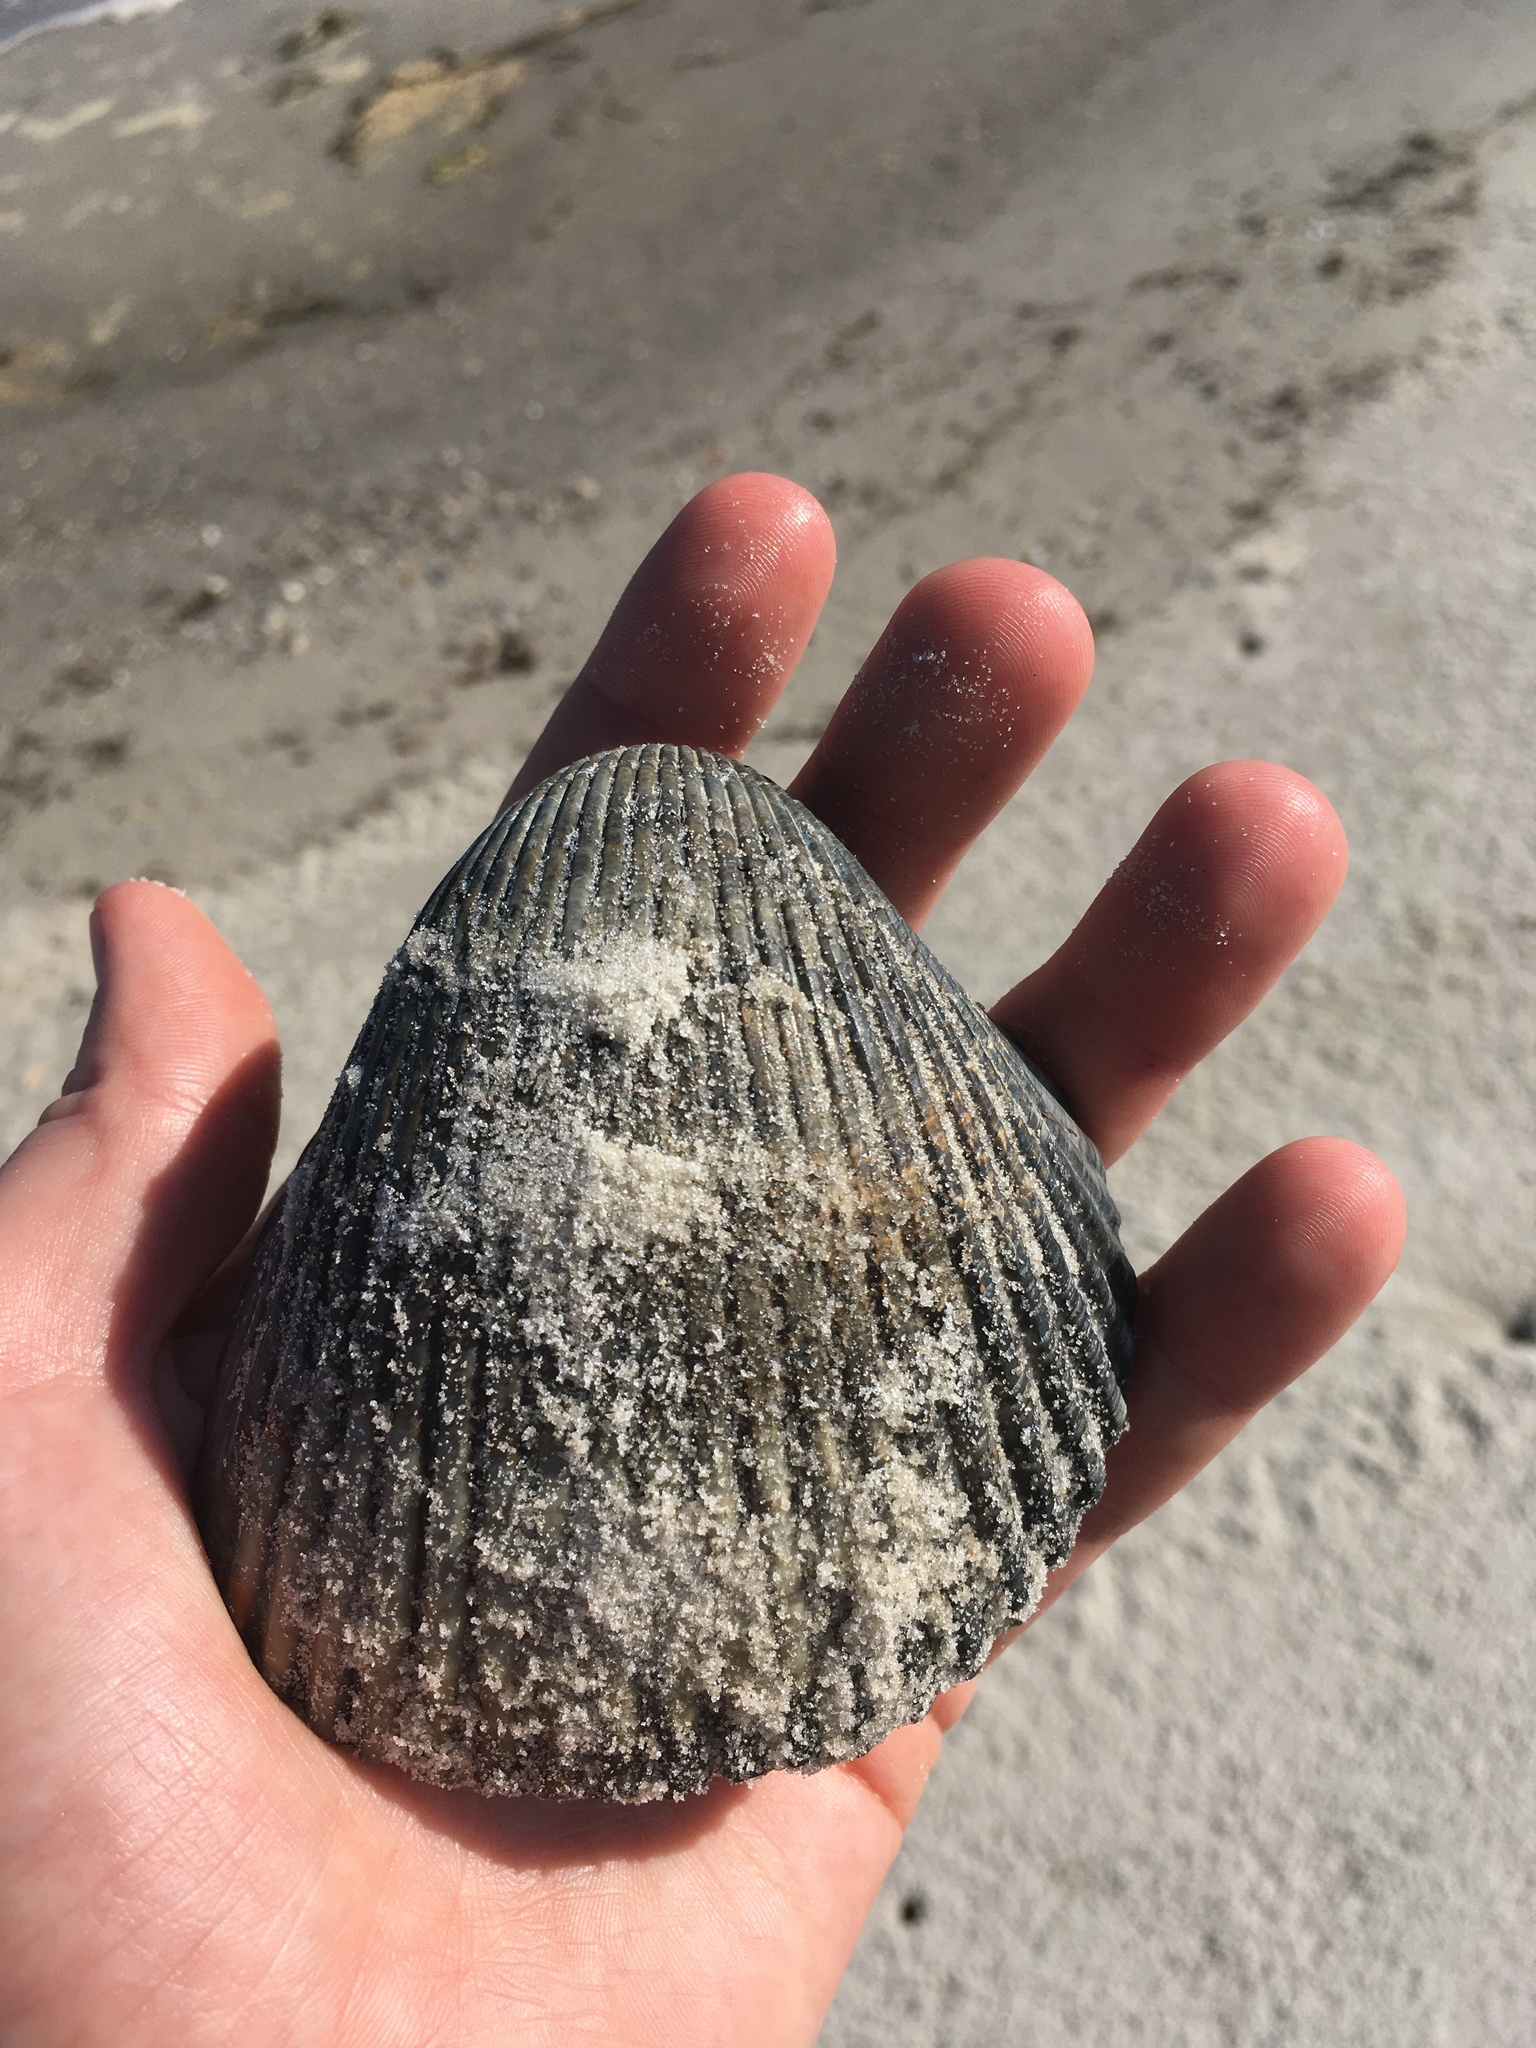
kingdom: Animalia
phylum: Mollusca
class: Bivalvia
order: Cardiida
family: Cardiidae
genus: Dinocardium
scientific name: Dinocardium robustum
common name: Atlantic giant cockle
